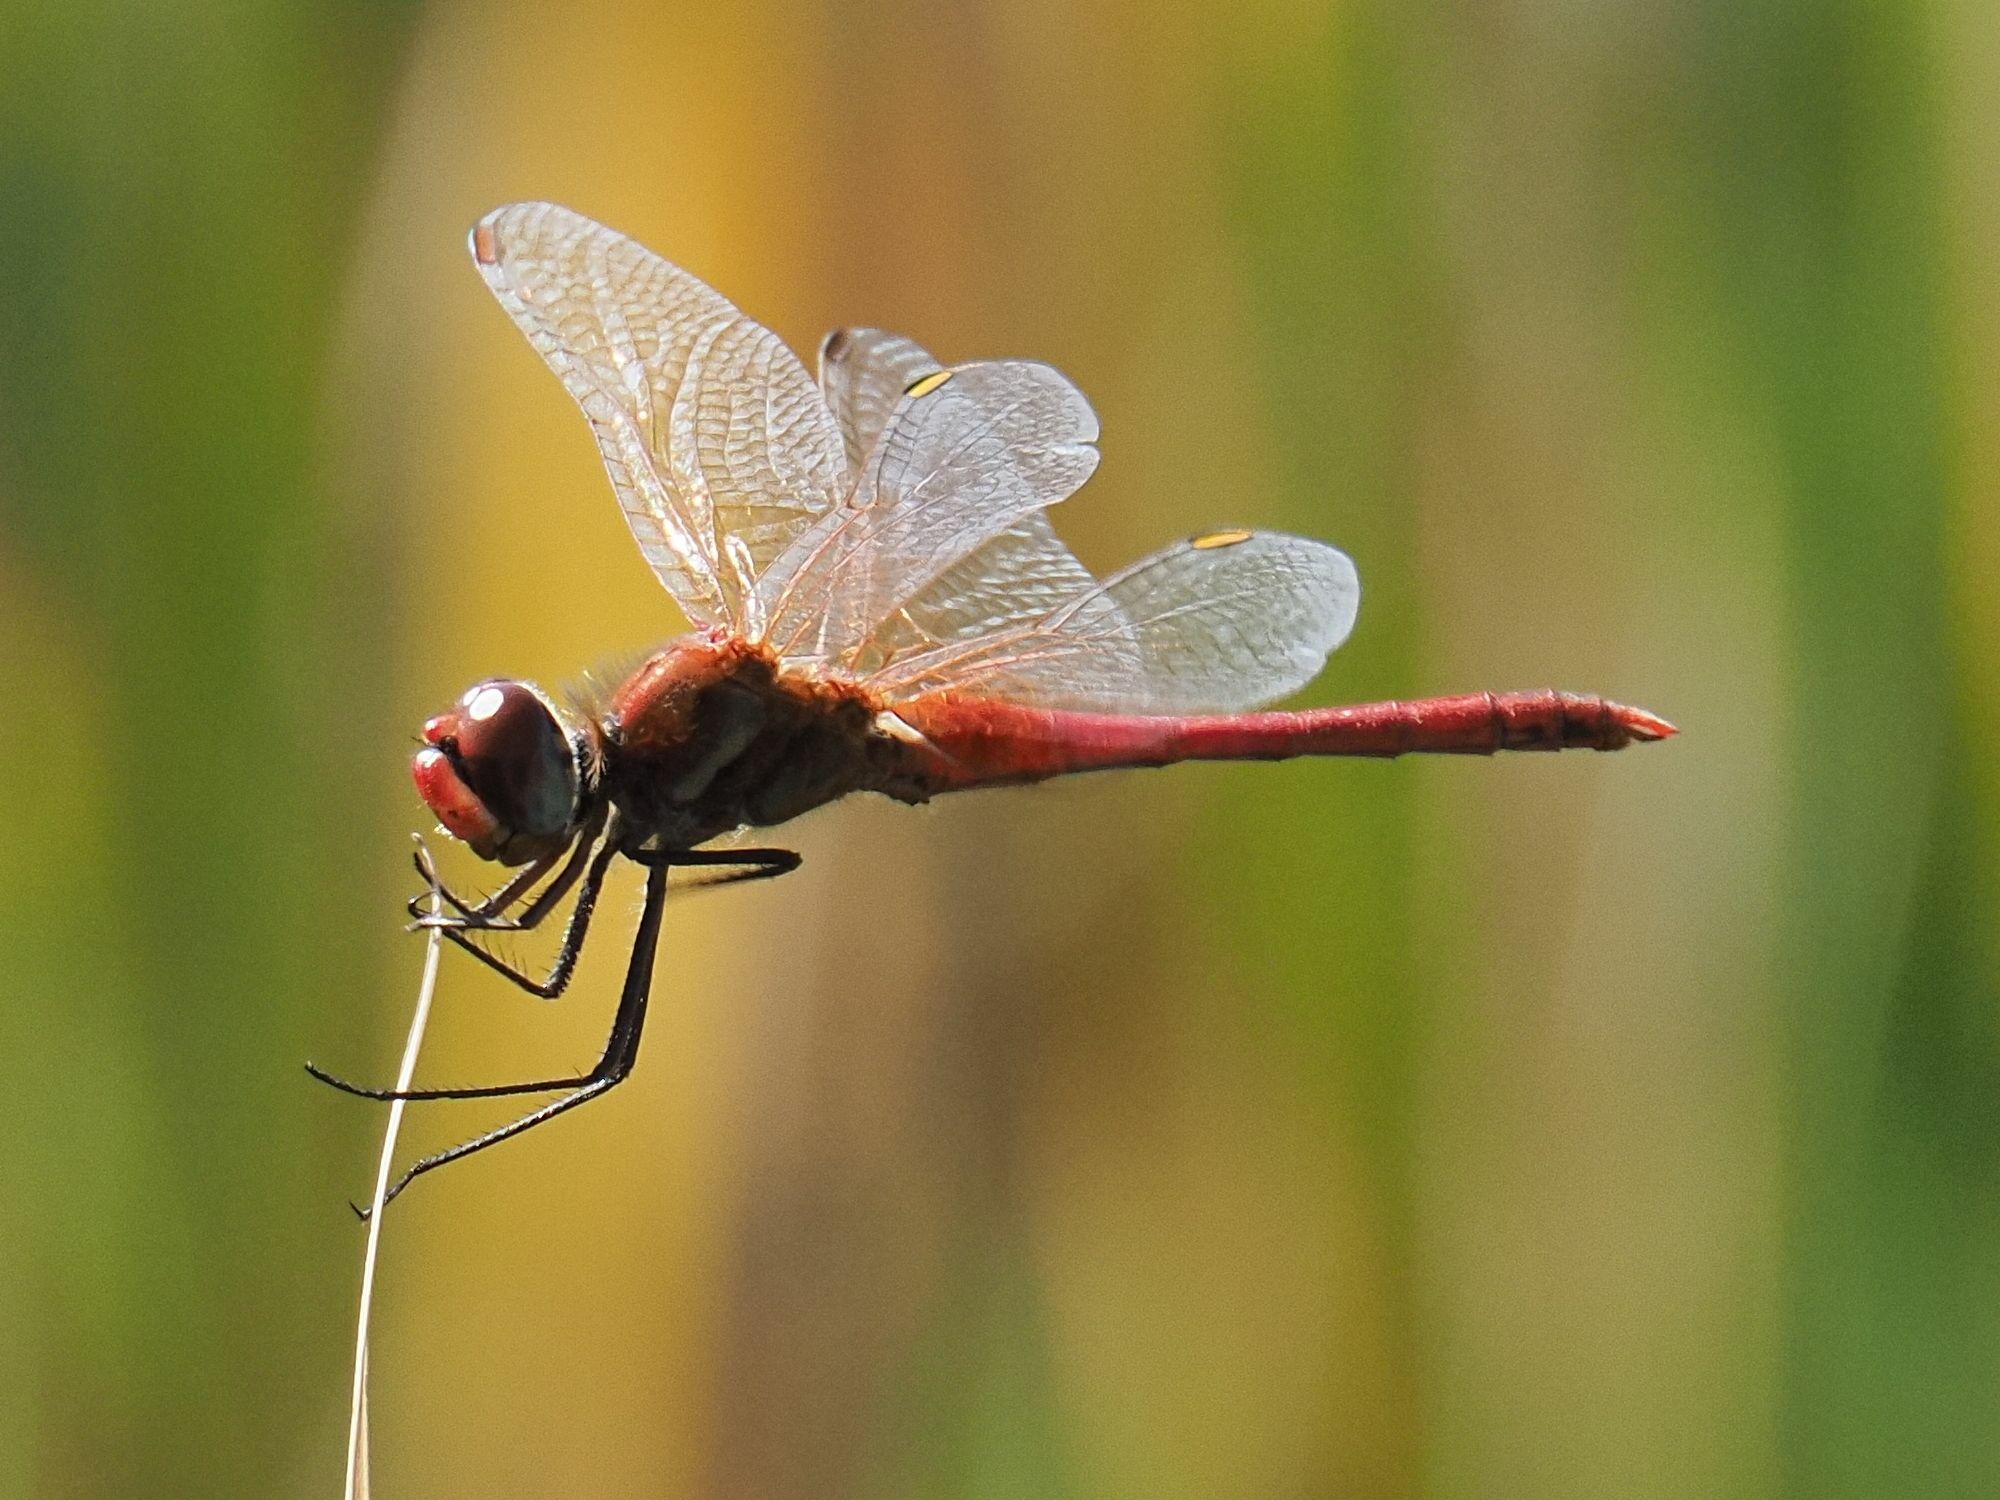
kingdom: Animalia
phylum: Arthropoda
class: Insecta
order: Odonata
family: Libellulidae
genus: Sympetrum
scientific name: Sympetrum fonscolombii
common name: Red-veined darter
